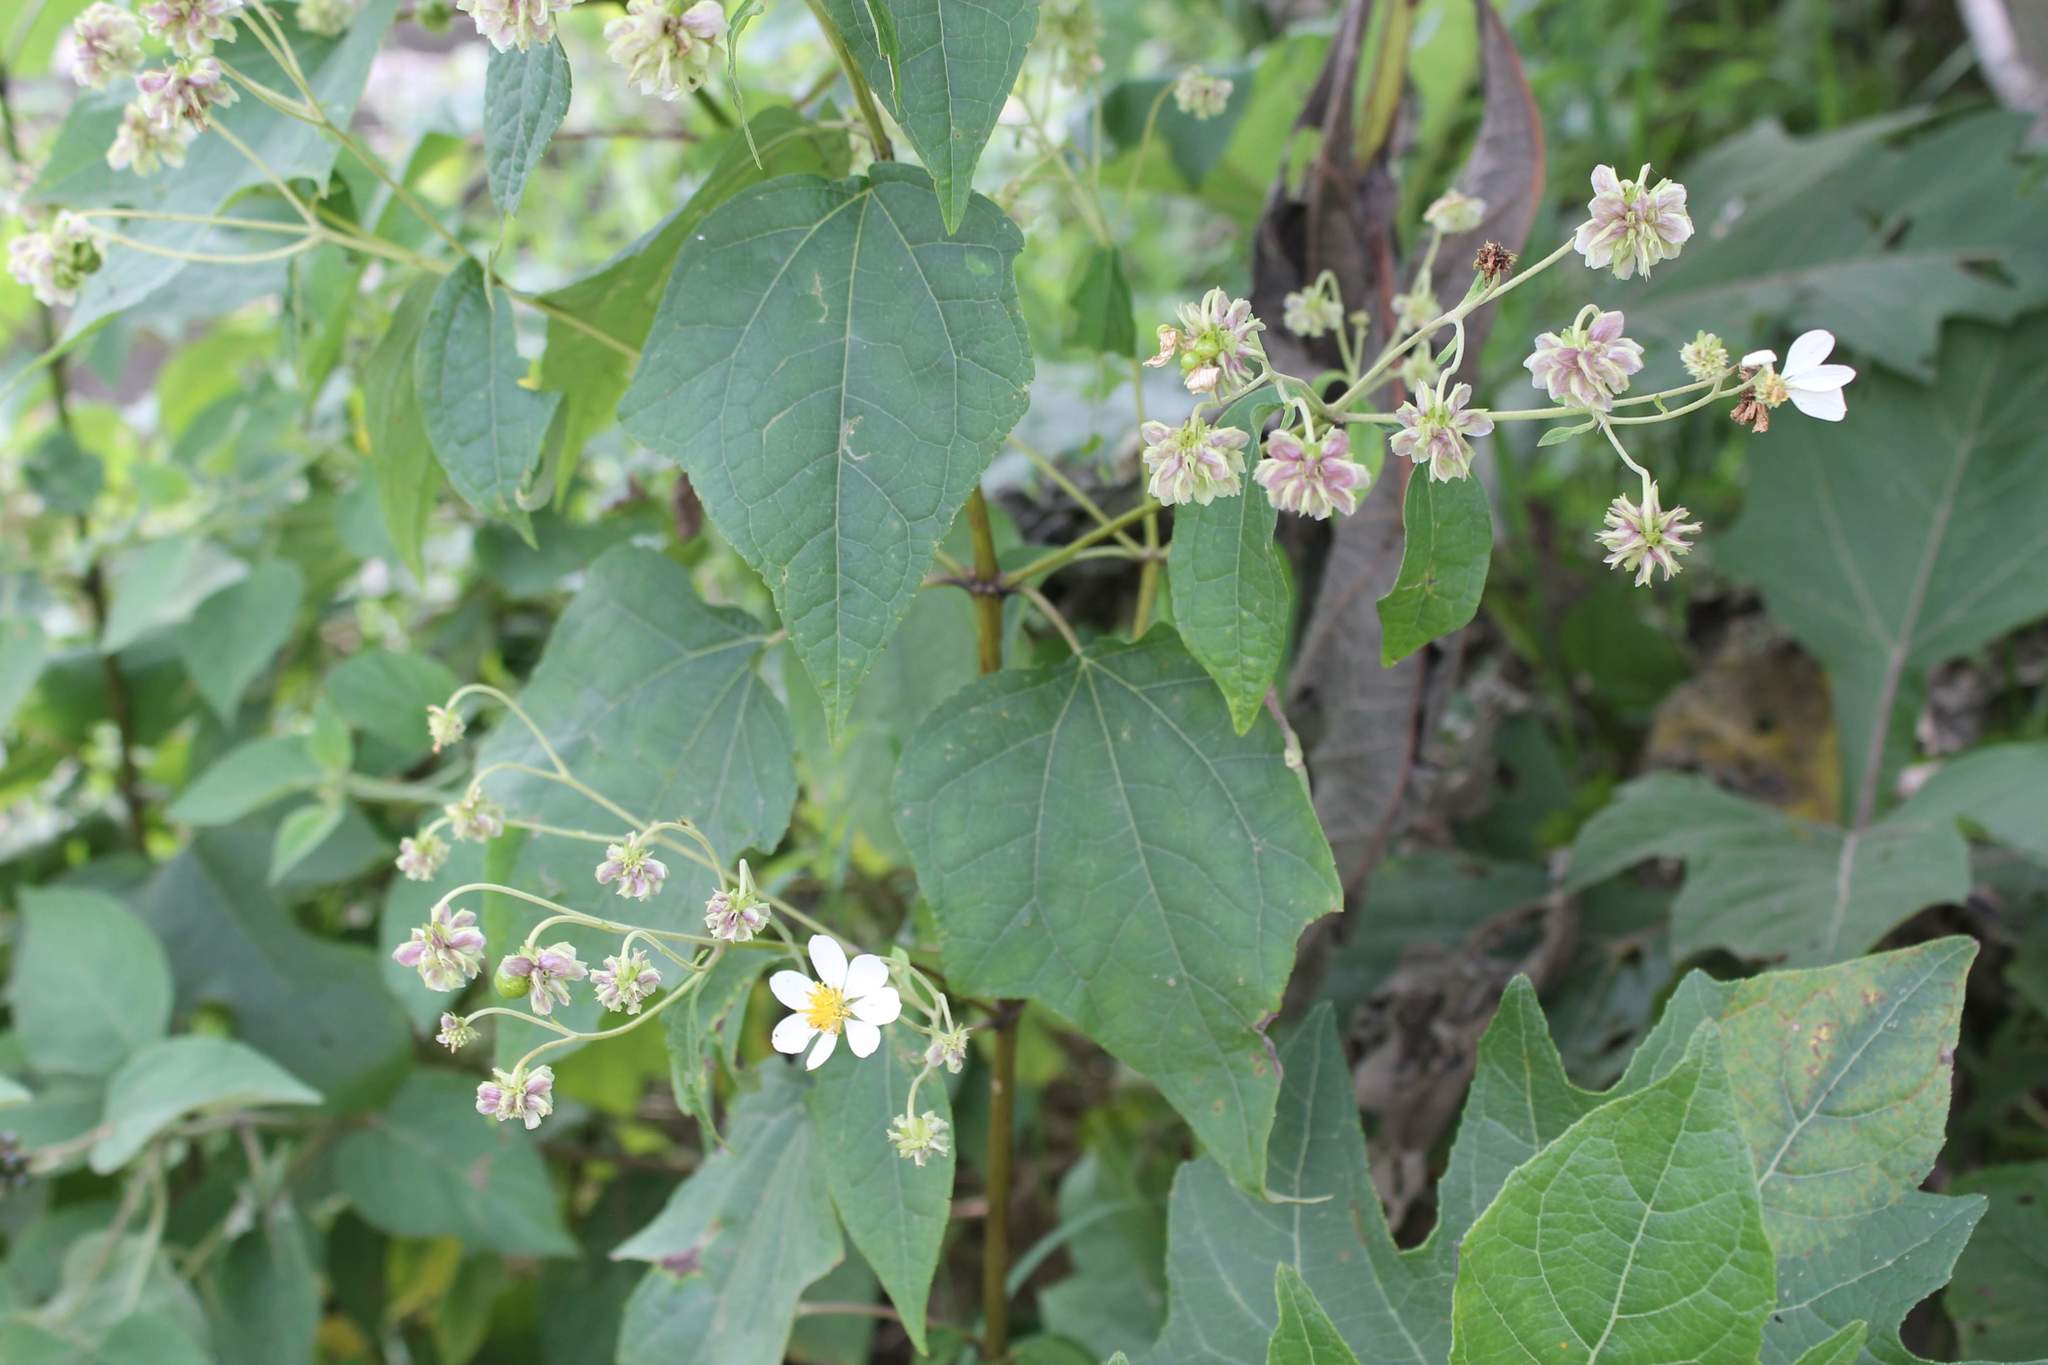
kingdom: Plantae
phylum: Tracheophyta
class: Magnoliopsida
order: Asterales
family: Asteraceae
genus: Montanoa
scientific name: Montanoa karwinskii
